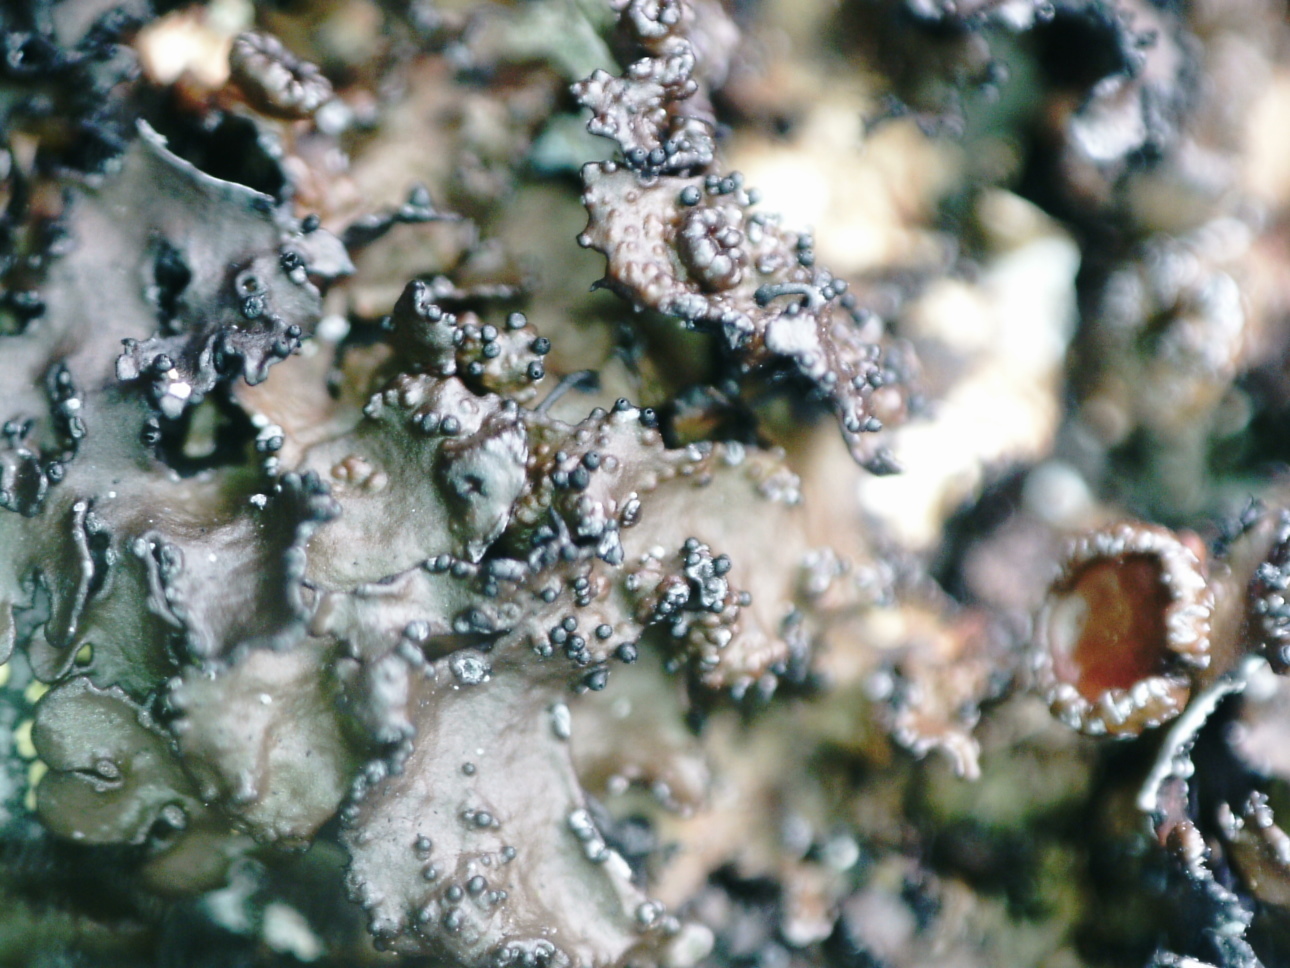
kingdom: Fungi
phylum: Ascomycota
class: Lecanoromycetes
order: Lecanorales
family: Parmeliaceae
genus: Melanelia
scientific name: Melanelia hepatizon
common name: Rimmed camouflage lichen
